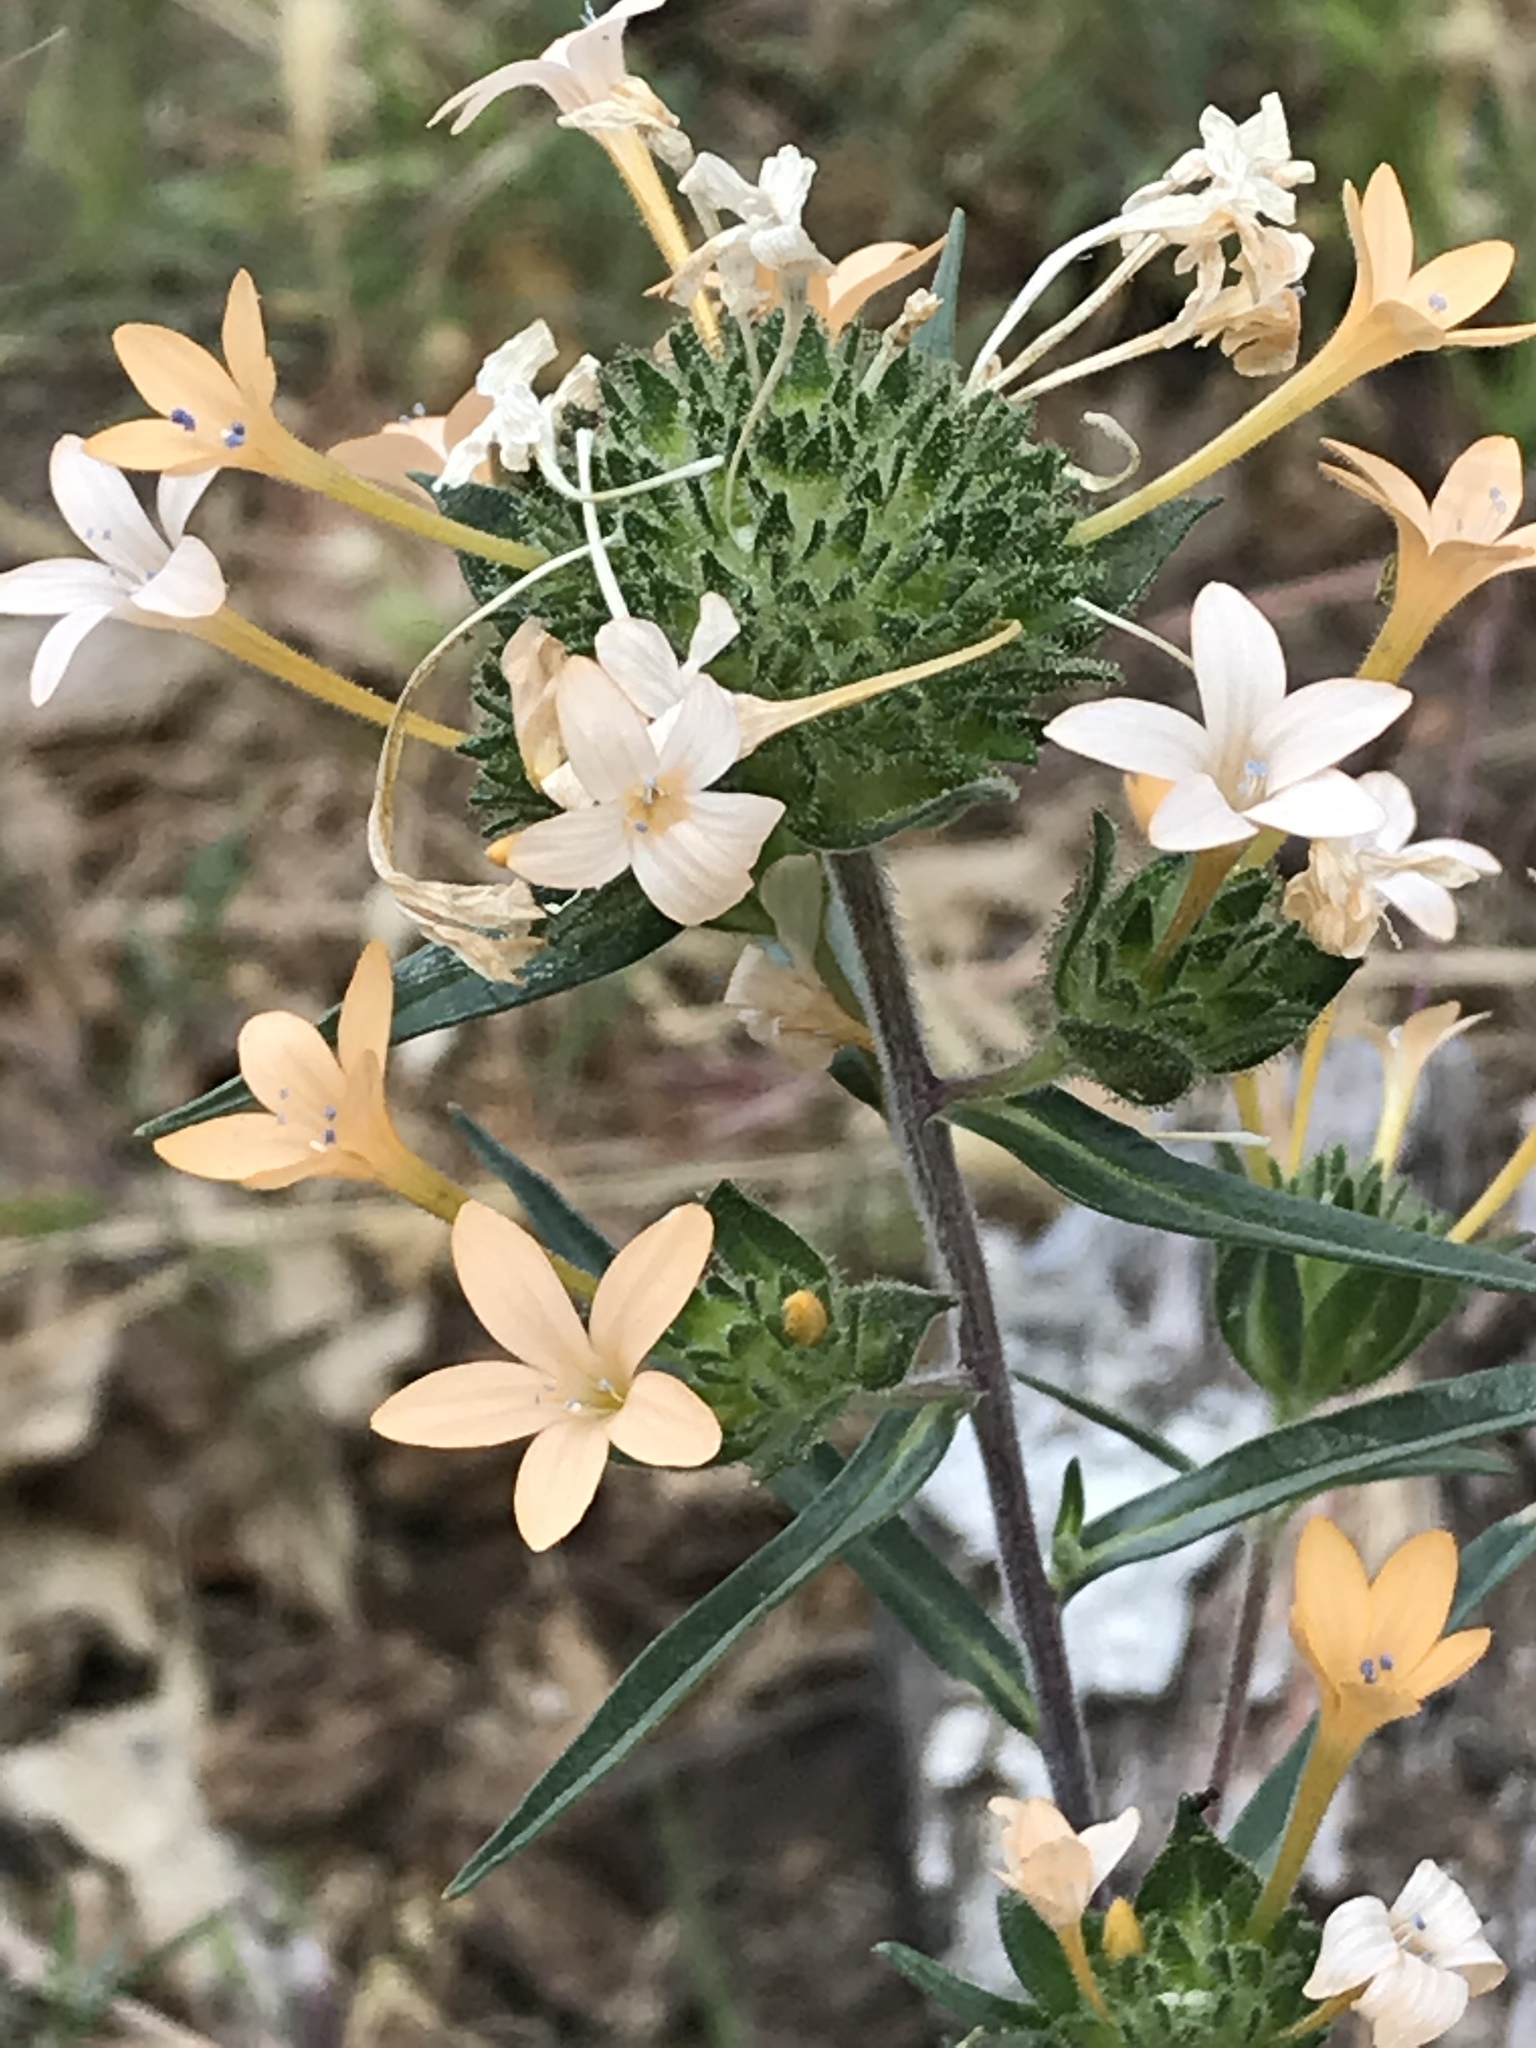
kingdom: Plantae
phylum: Tracheophyta
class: Magnoliopsida
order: Ericales
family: Polemoniaceae
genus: Collomia
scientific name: Collomia grandiflora
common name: California strawflower
